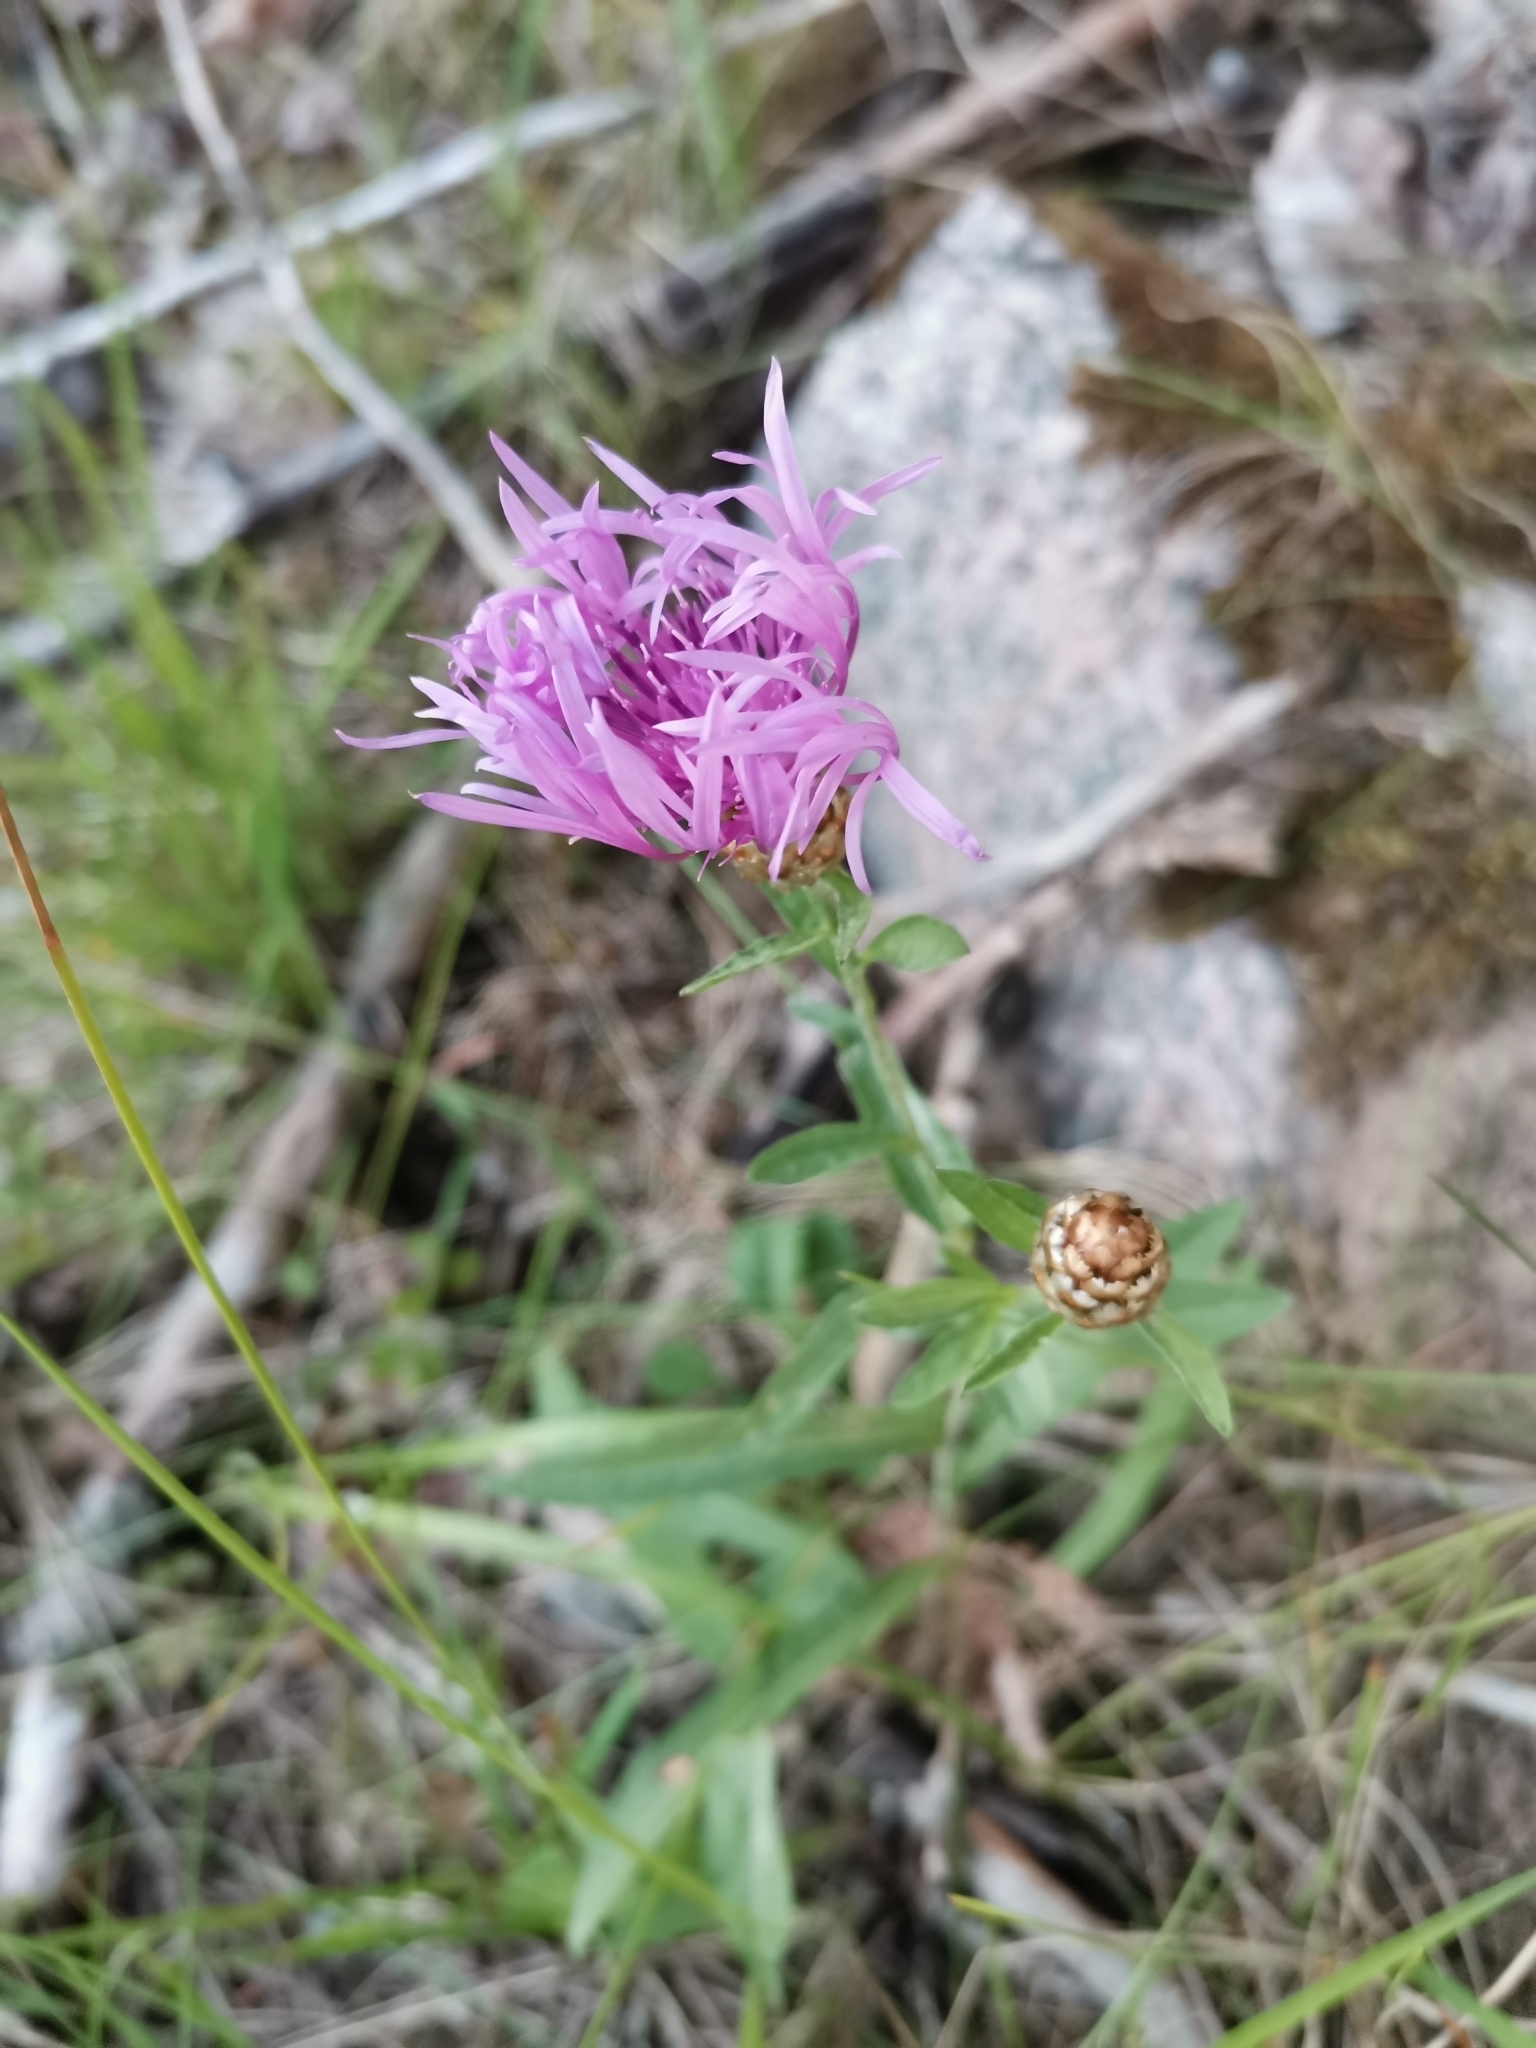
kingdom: Plantae
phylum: Tracheophyta
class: Magnoliopsida
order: Asterales
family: Asteraceae
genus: Centaurea
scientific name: Centaurea jacea
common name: Brown knapweed
